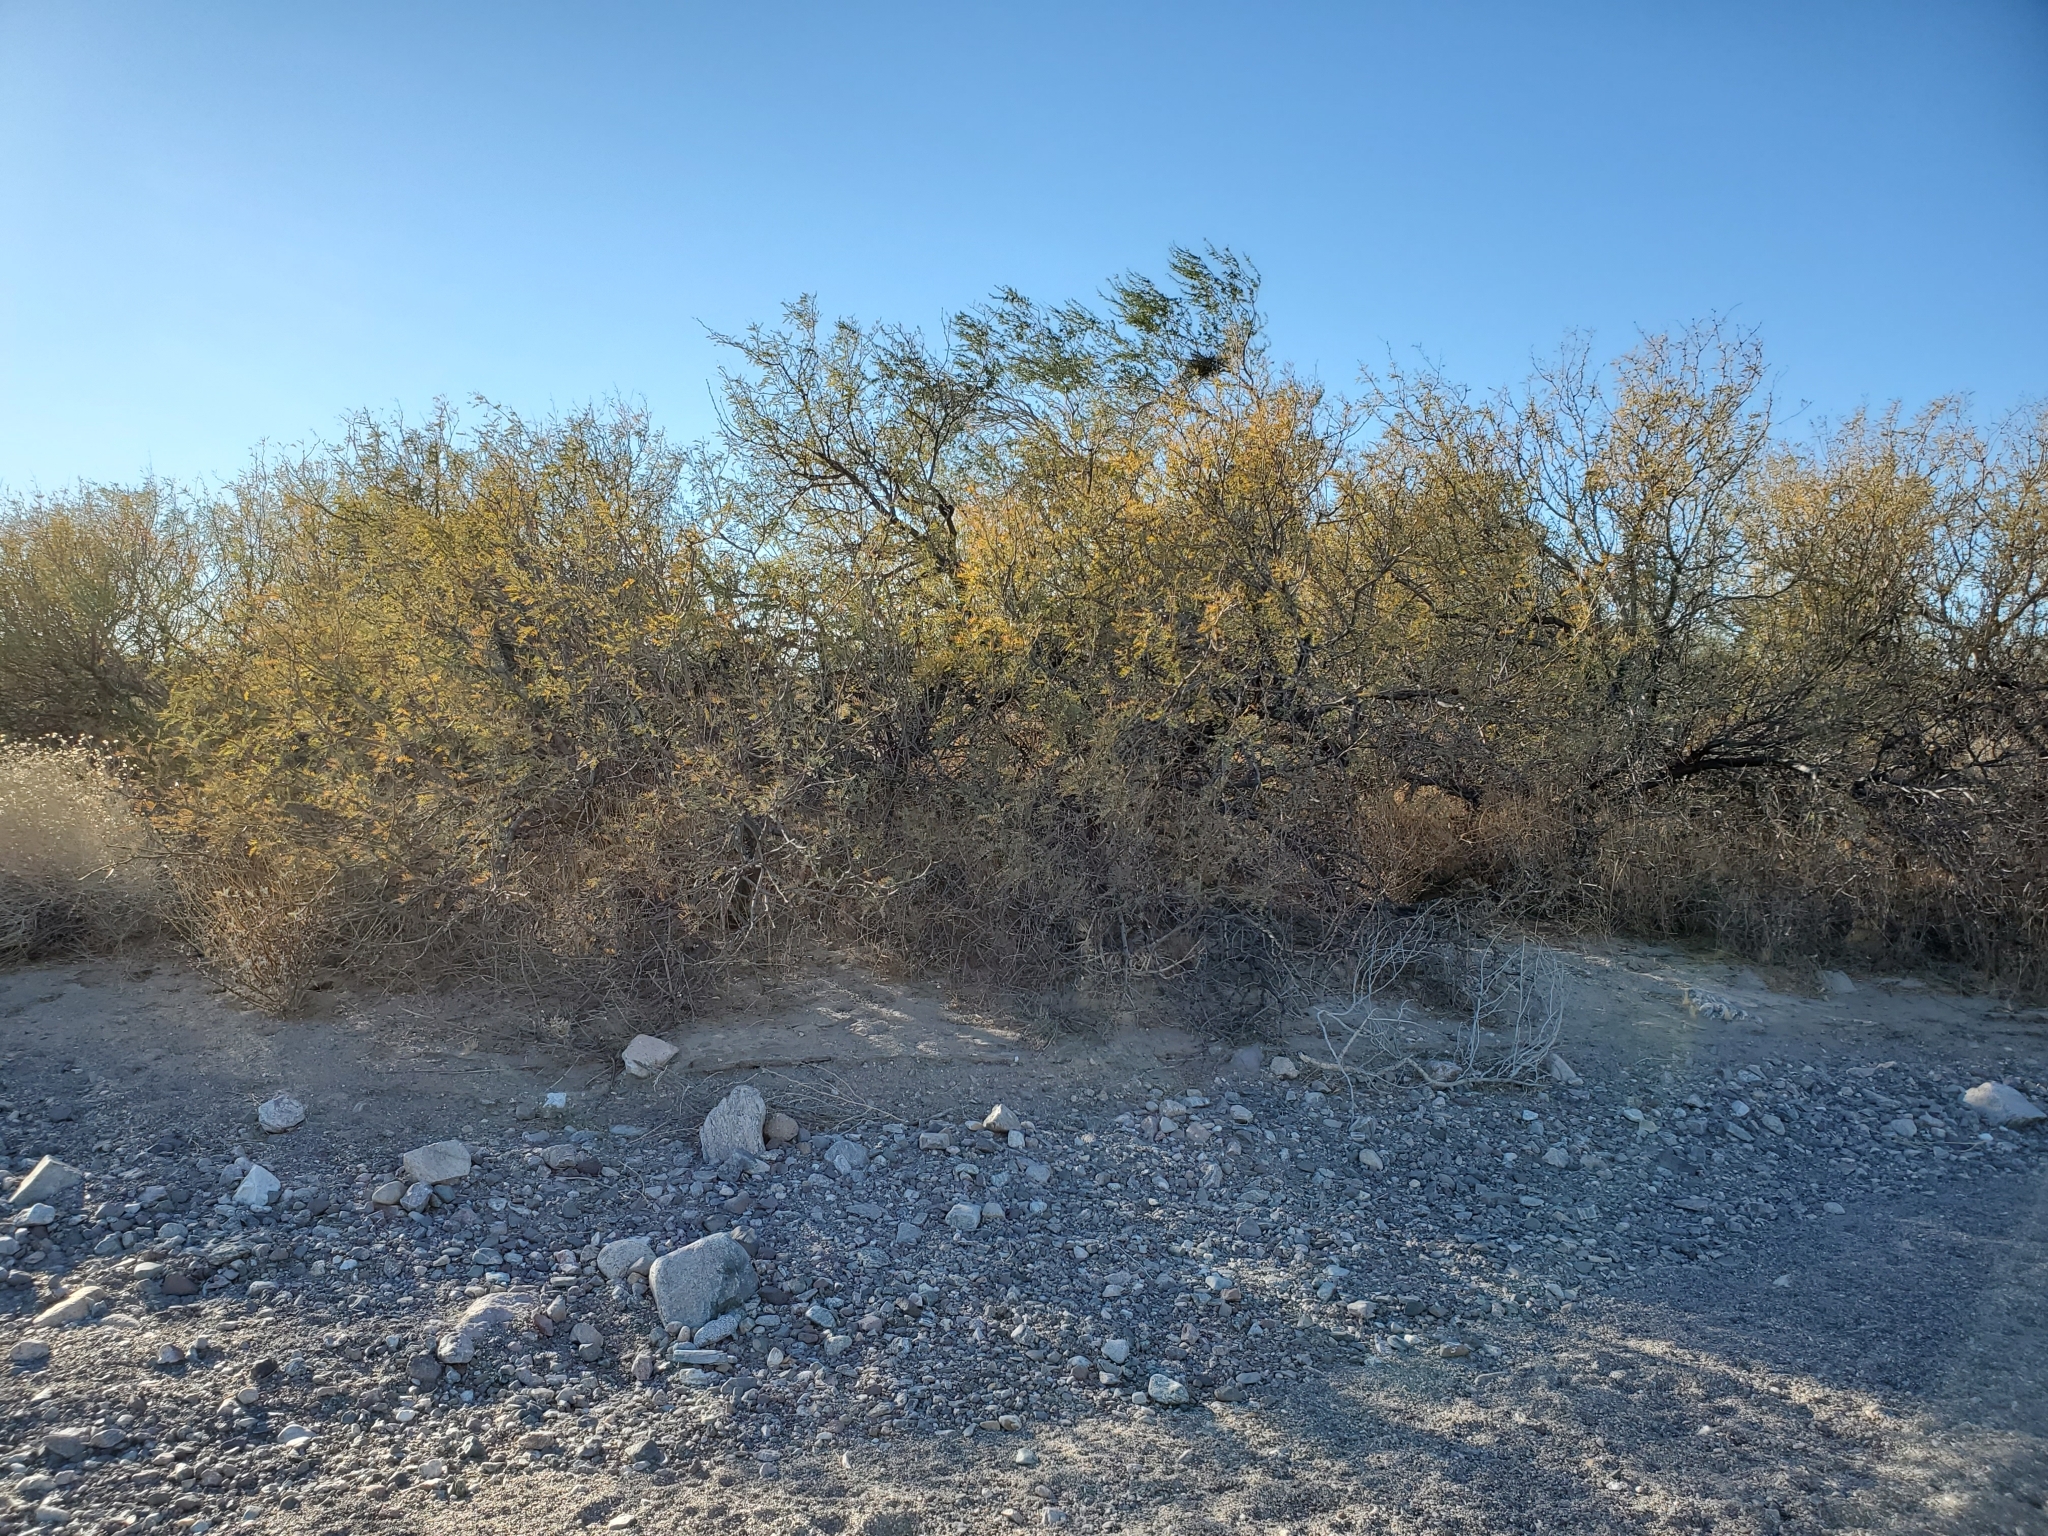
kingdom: Plantae
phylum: Tracheophyta
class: Magnoliopsida
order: Fabales
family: Fabaceae
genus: Prosopis
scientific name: Prosopis pubescens
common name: Screw-bean
